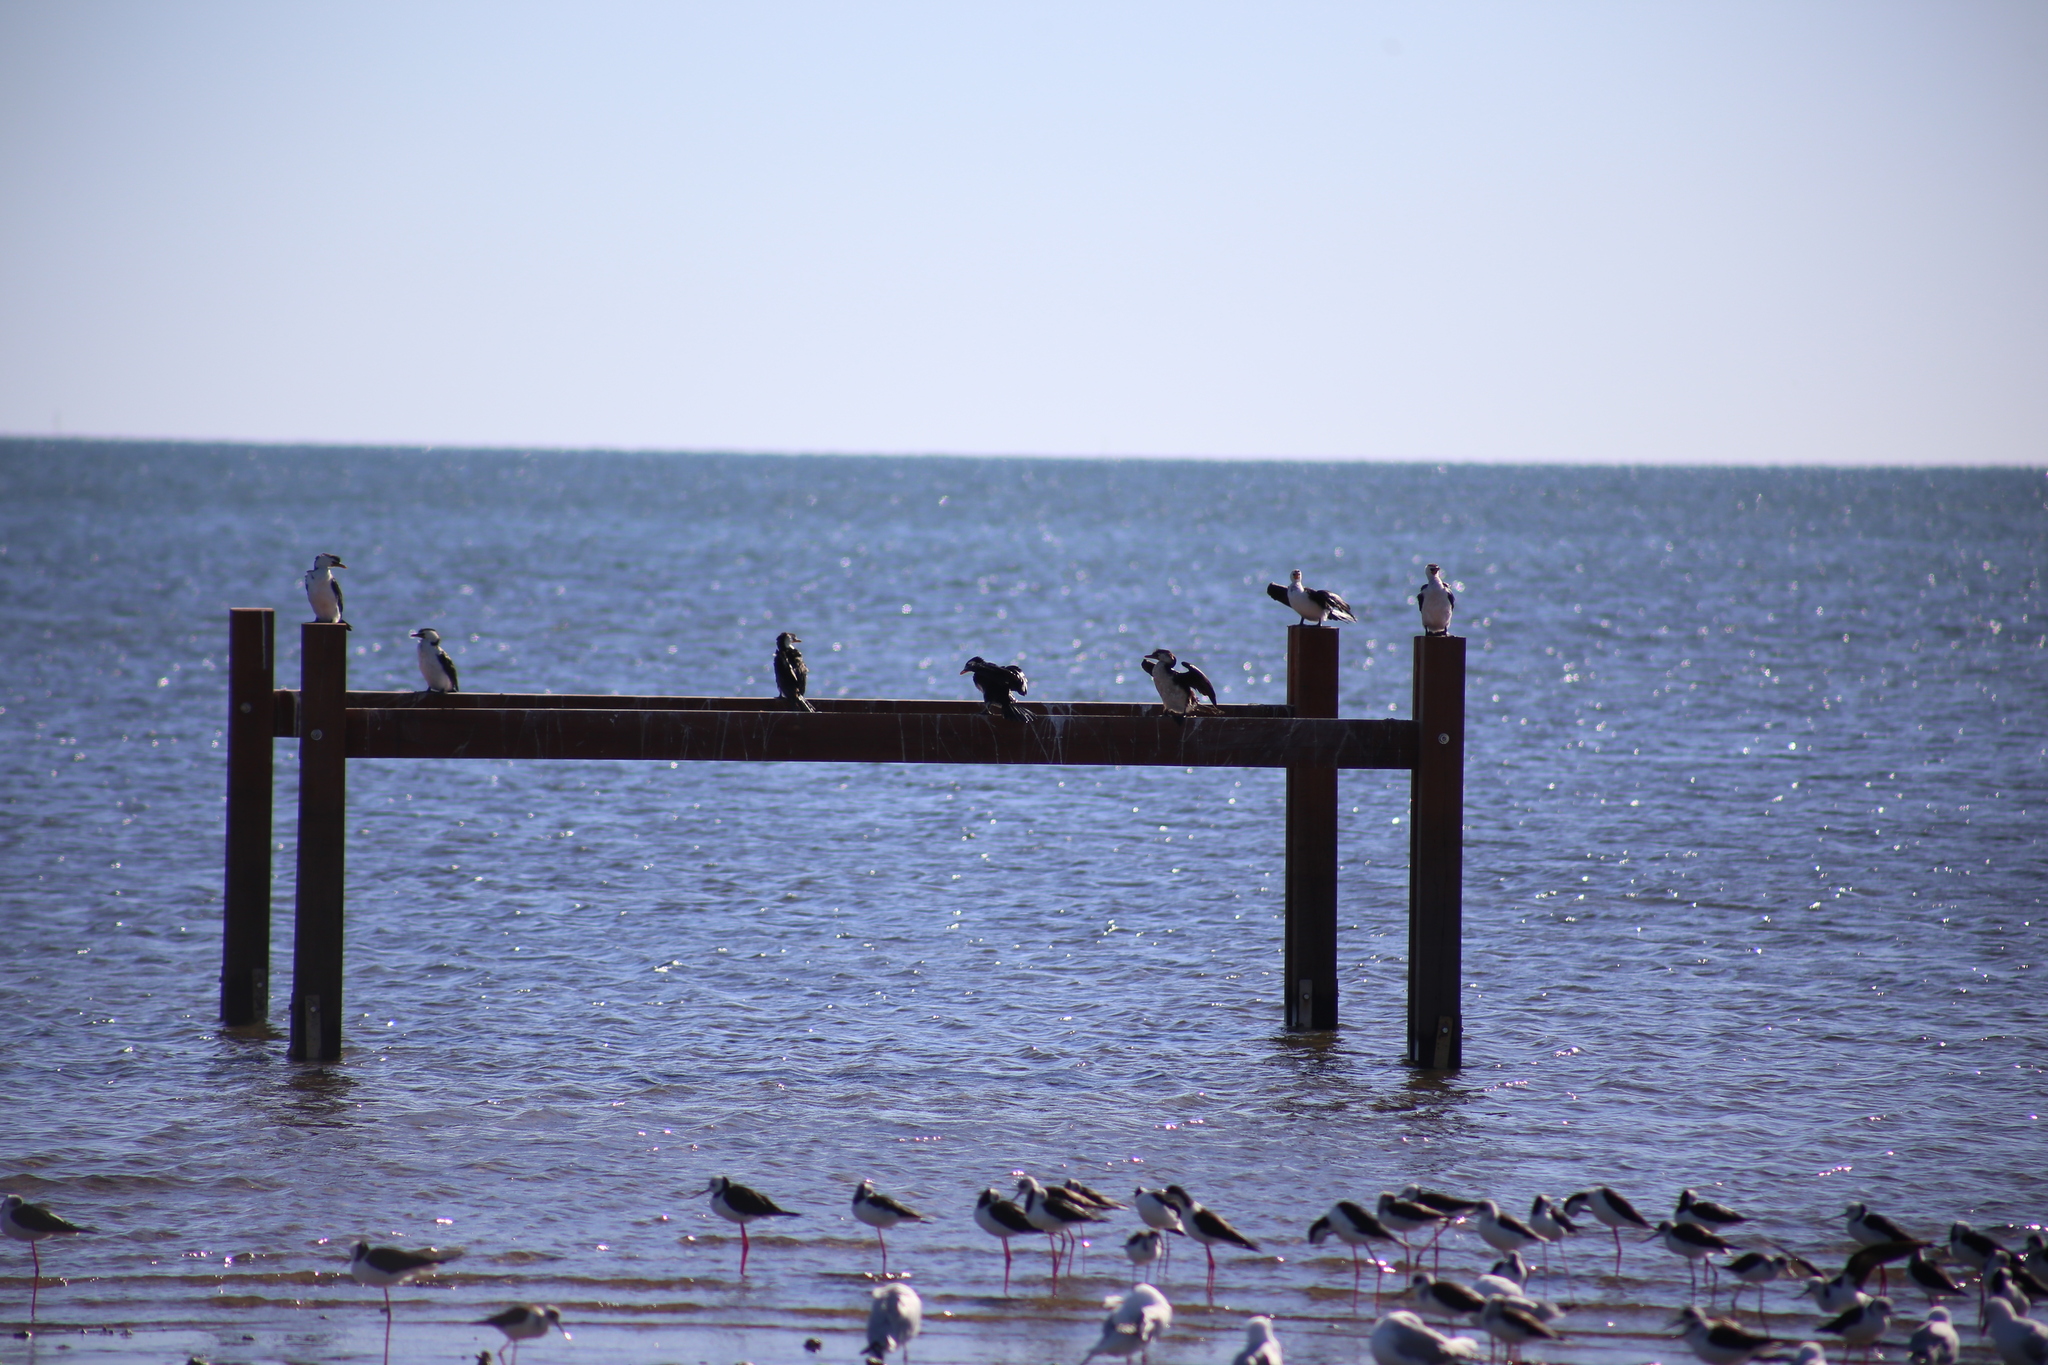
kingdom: Animalia
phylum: Chordata
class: Aves
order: Suliformes
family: Phalacrocoracidae
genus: Microcarbo
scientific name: Microcarbo melanoleucos
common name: Little pied cormorant
